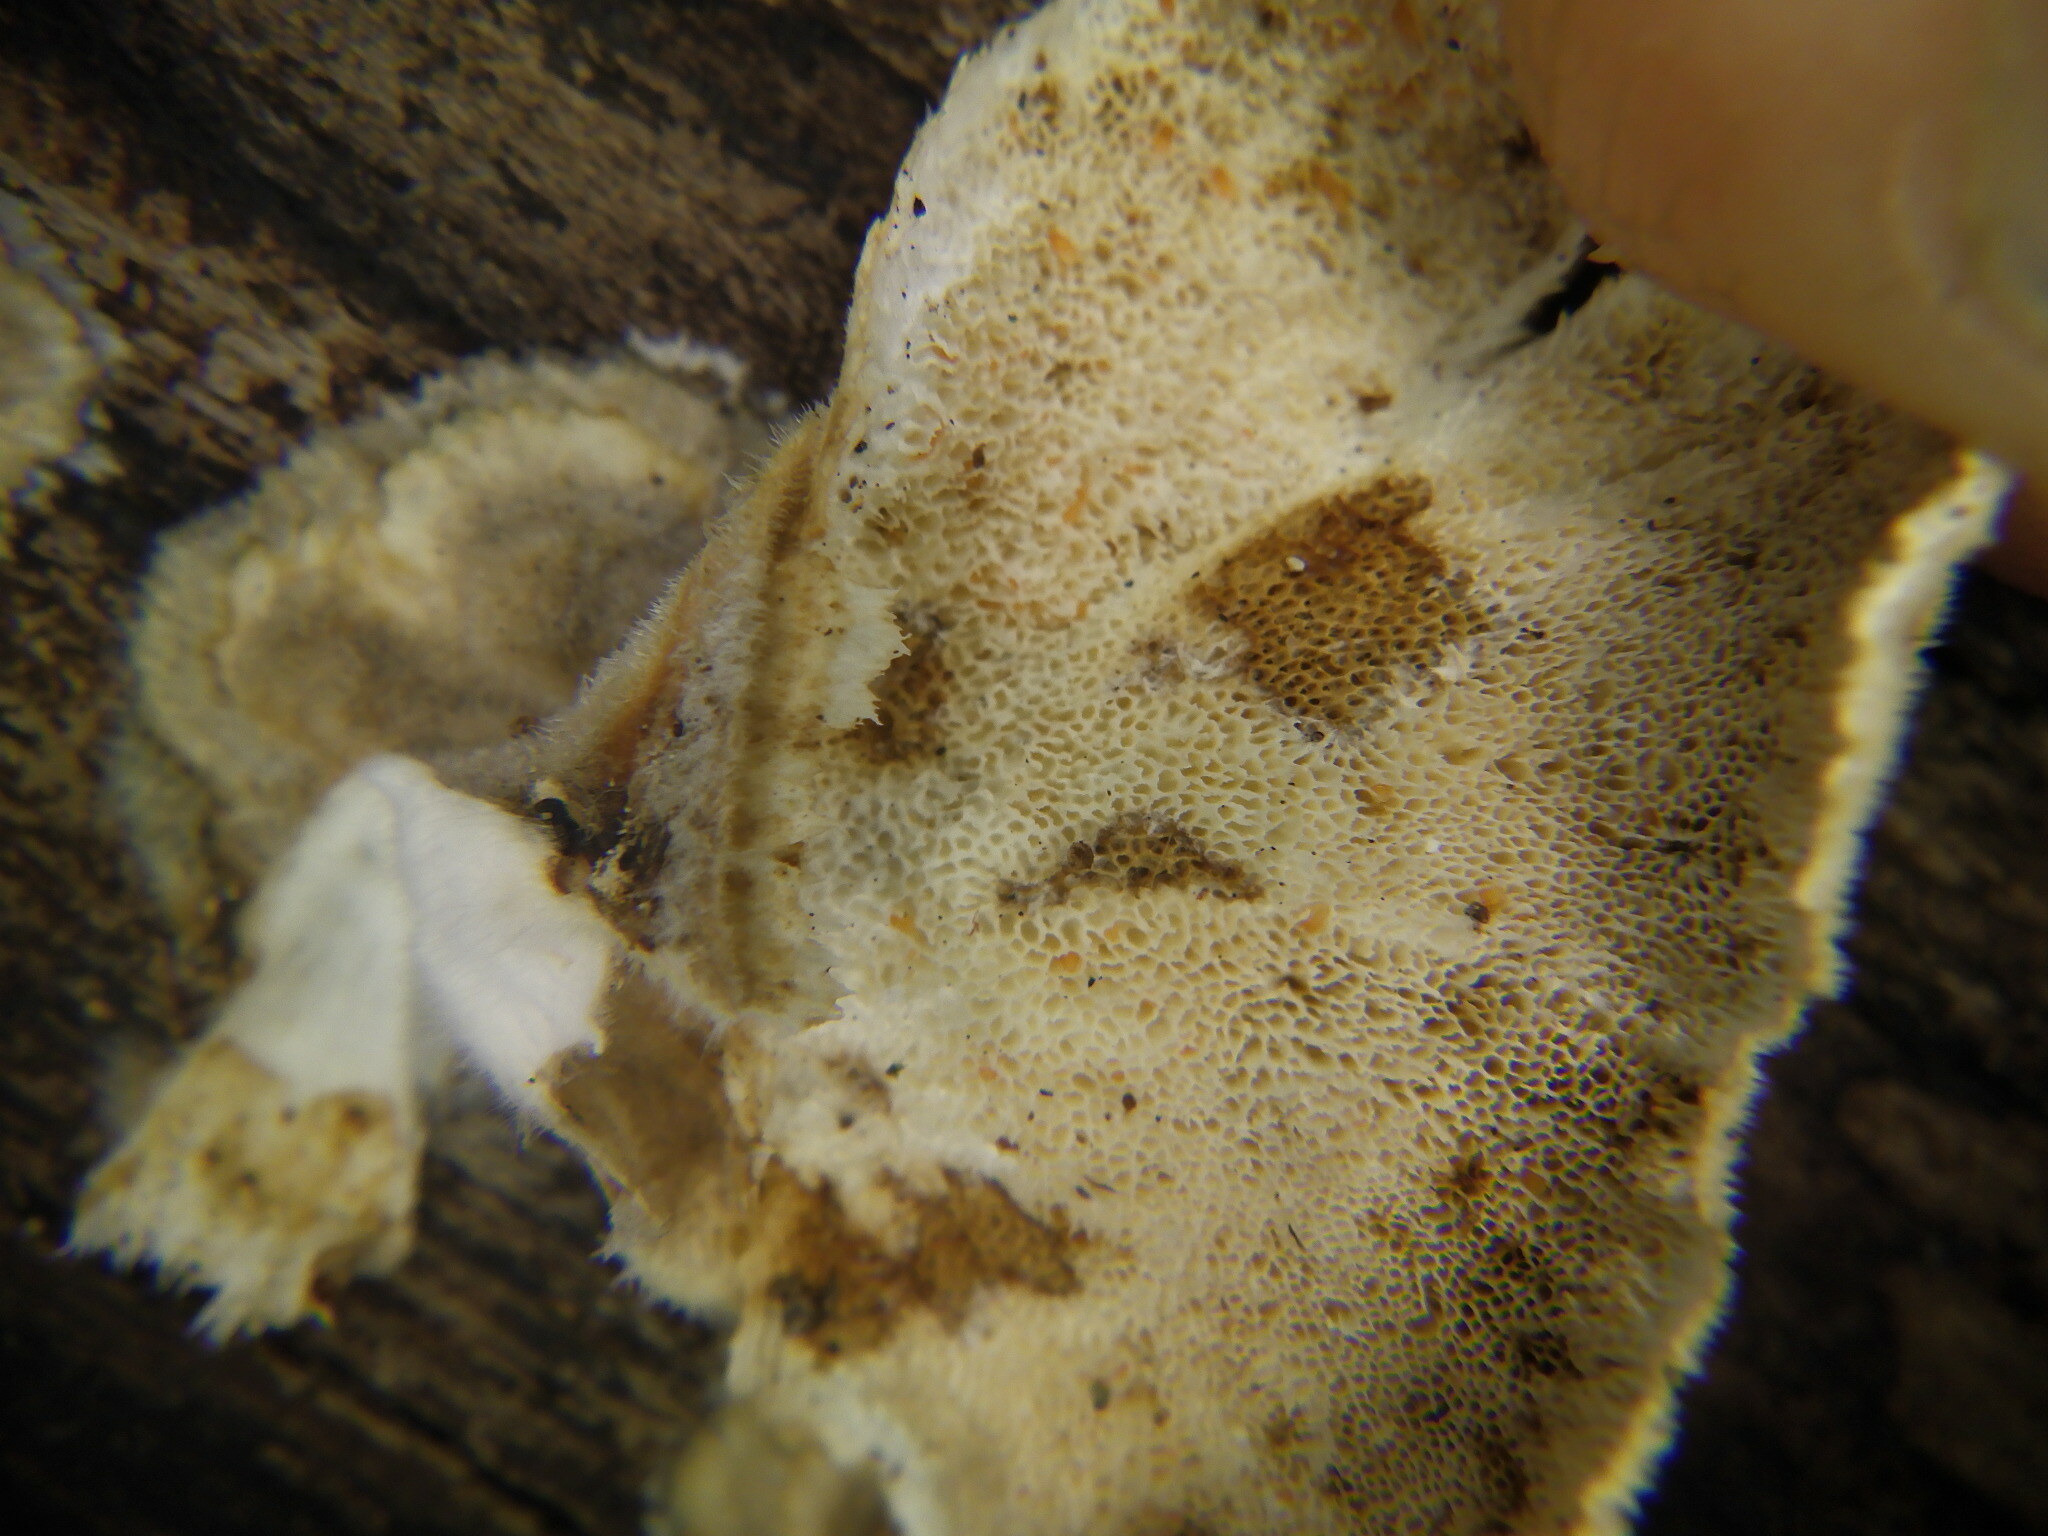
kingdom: Fungi
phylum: Basidiomycota
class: Agaricomycetes
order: Polyporales
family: Polyporaceae
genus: Trametes
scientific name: Trametes versicolor
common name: Turkeytail
